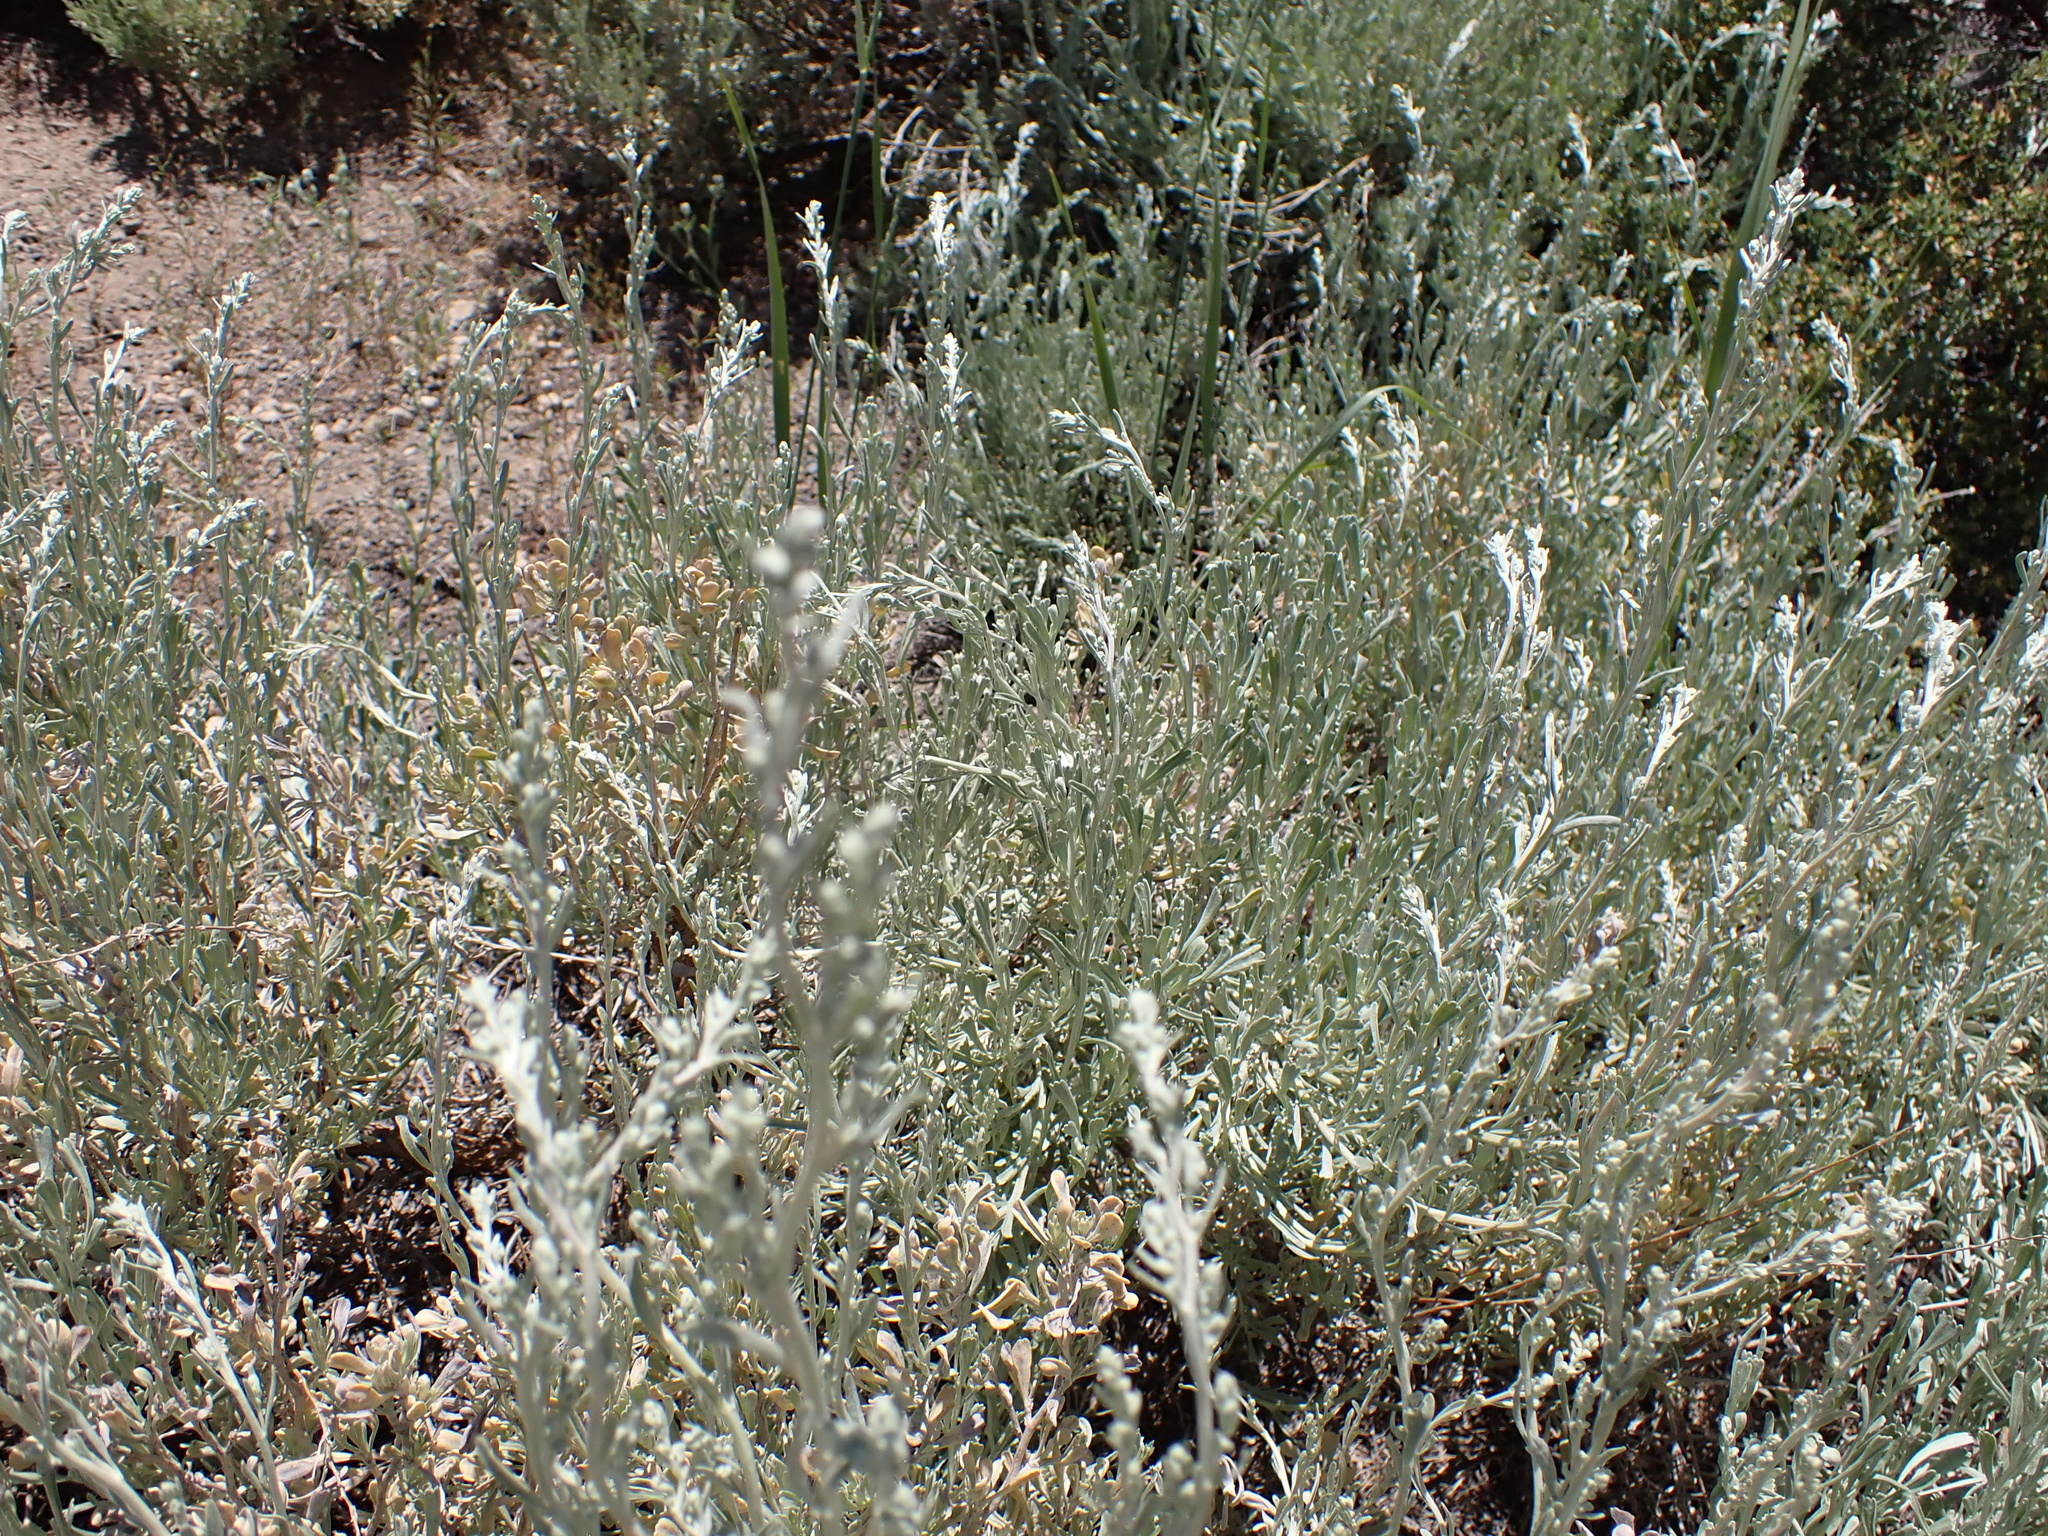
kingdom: Plantae
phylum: Tracheophyta
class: Magnoliopsida
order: Asterales
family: Asteraceae
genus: Artemisia
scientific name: Artemisia tridentata
